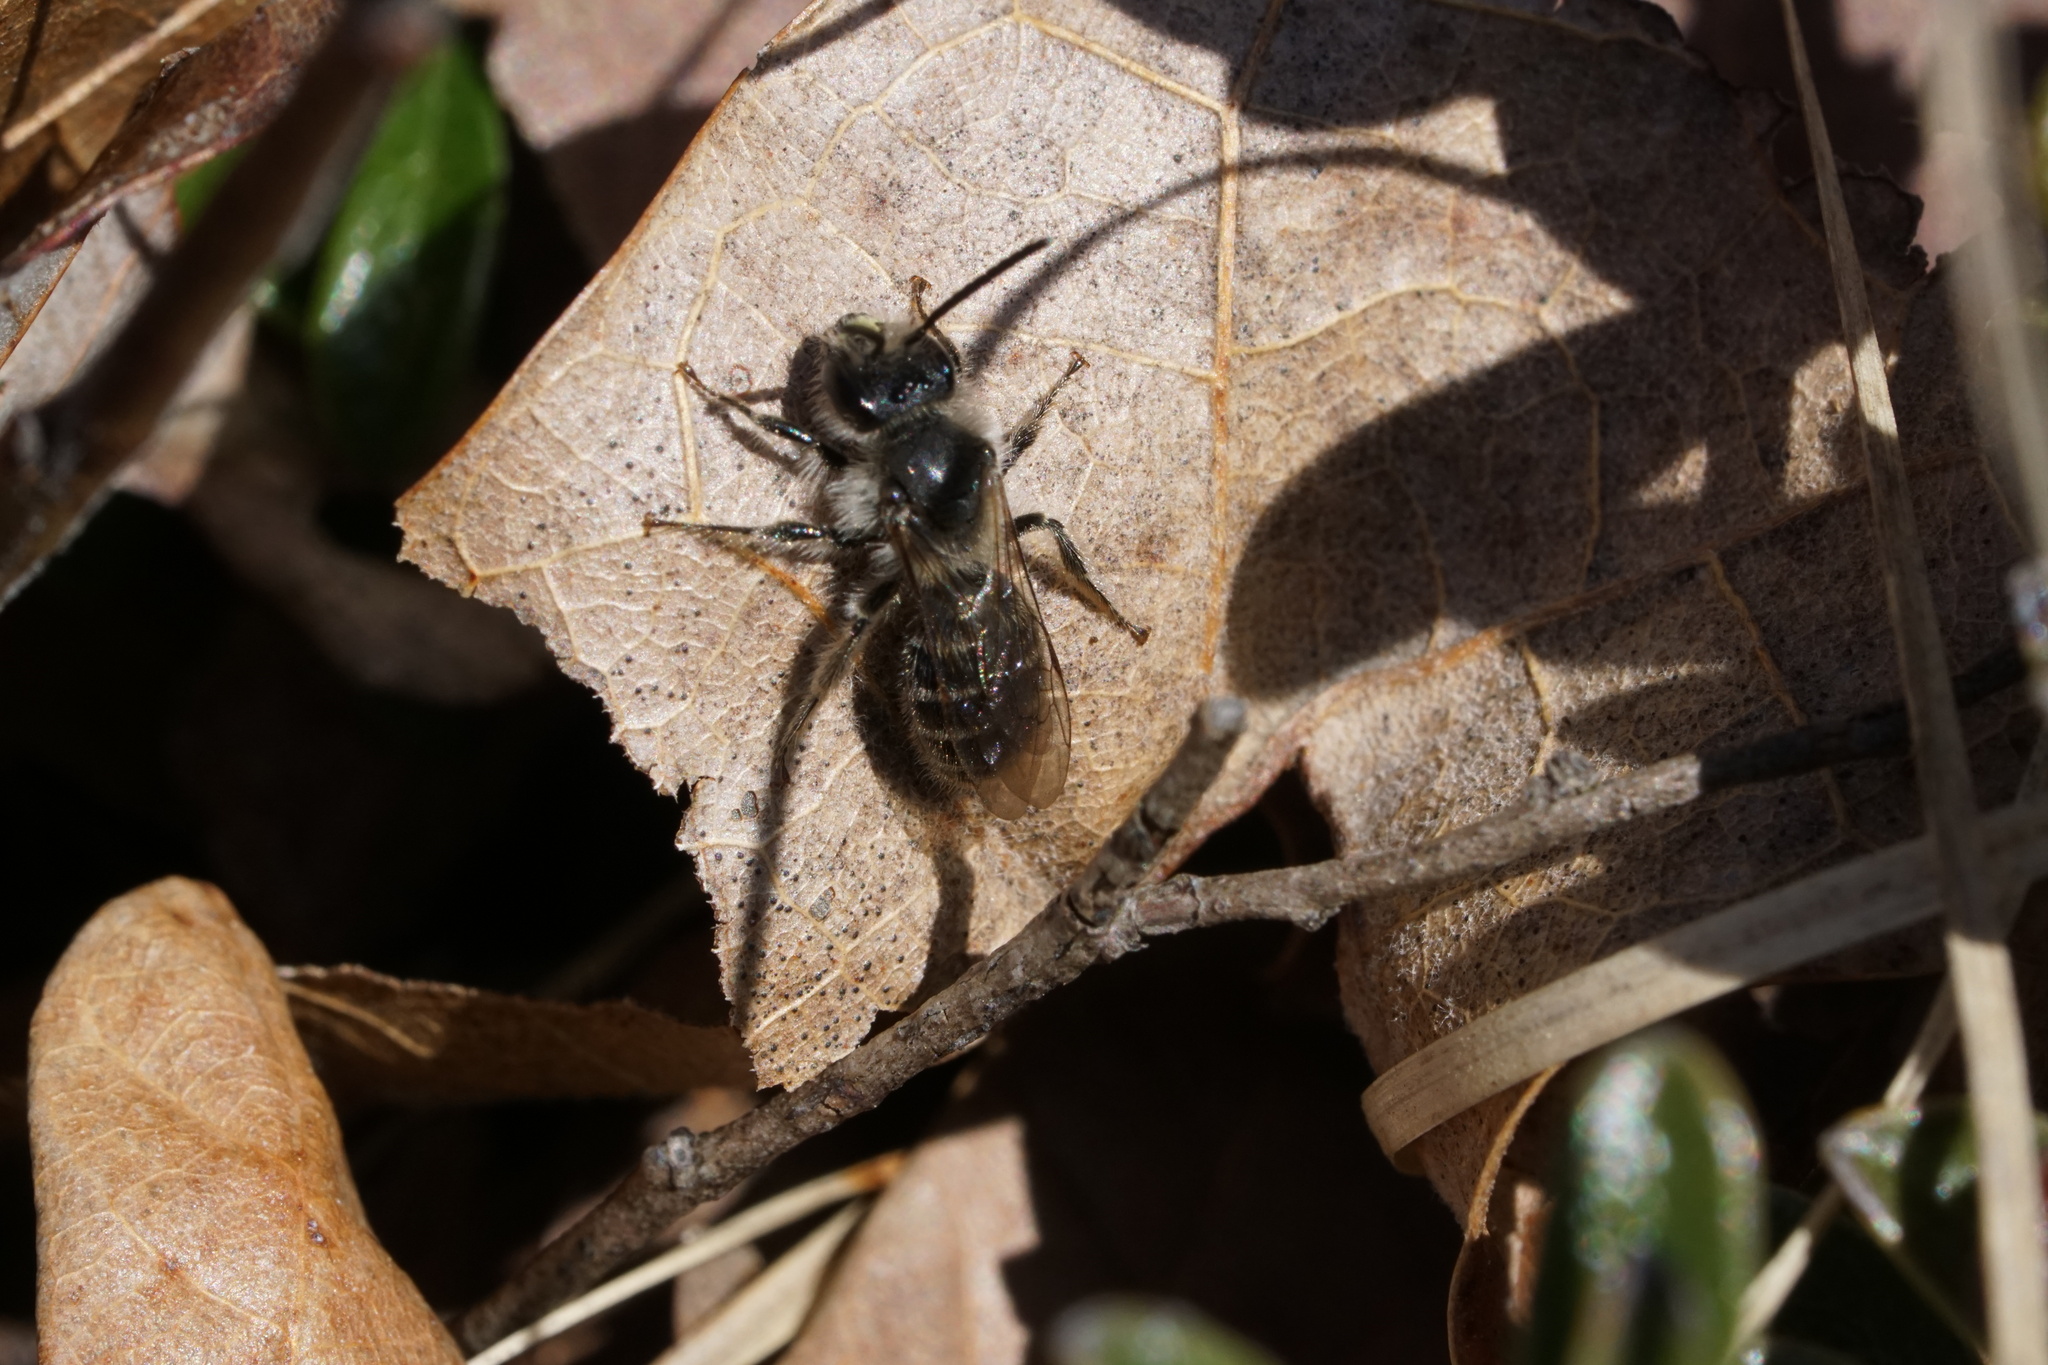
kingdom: Animalia
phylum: Arthropoda
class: Insecta
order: Hymenoptera
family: Andrenidae
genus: Andrena
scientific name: Andrena bradleyi
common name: Bradley's mining bee
